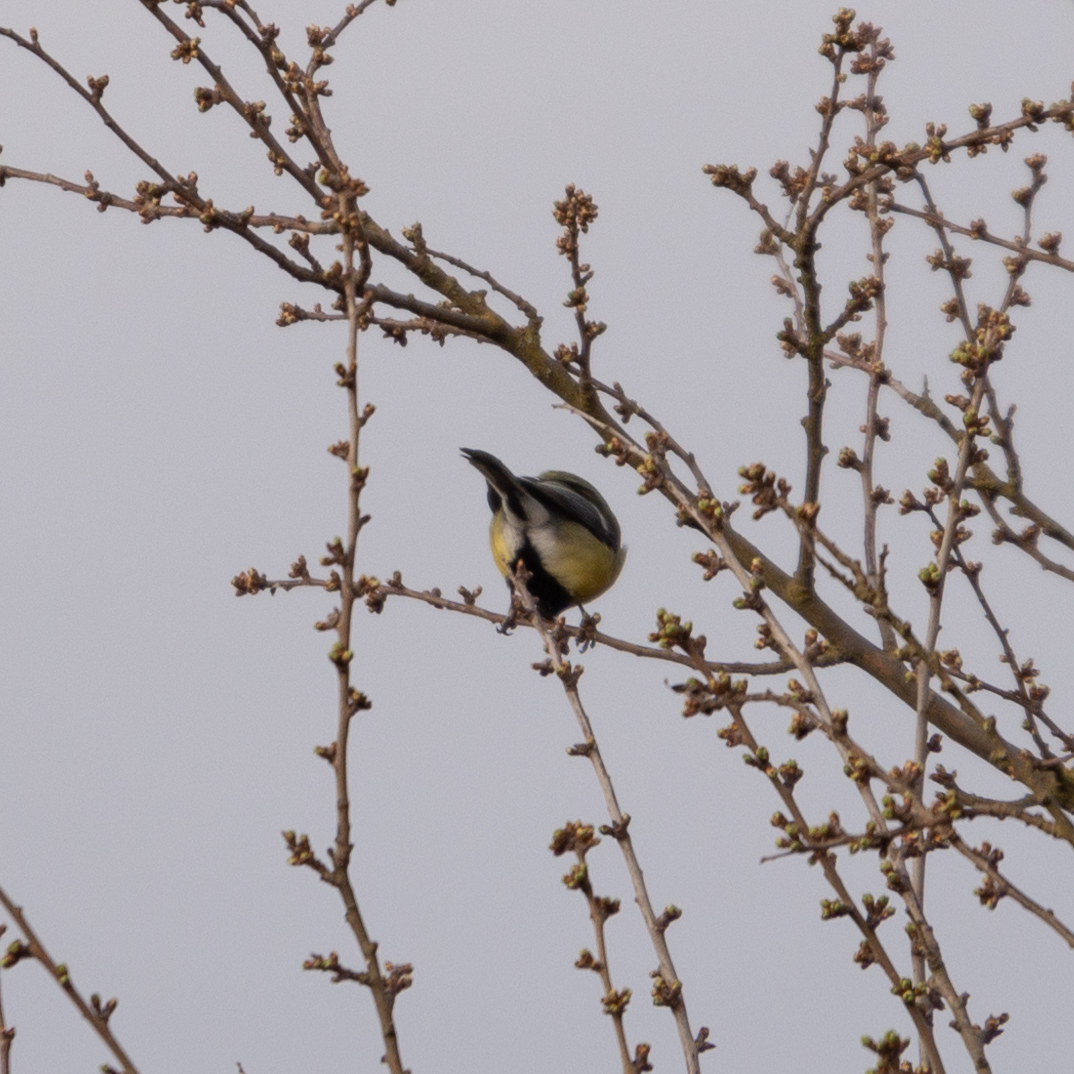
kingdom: Animalia
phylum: Chordata
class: Aves
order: Passeriformes
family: Paridae
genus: Parus
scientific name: Parus major
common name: Great tit
